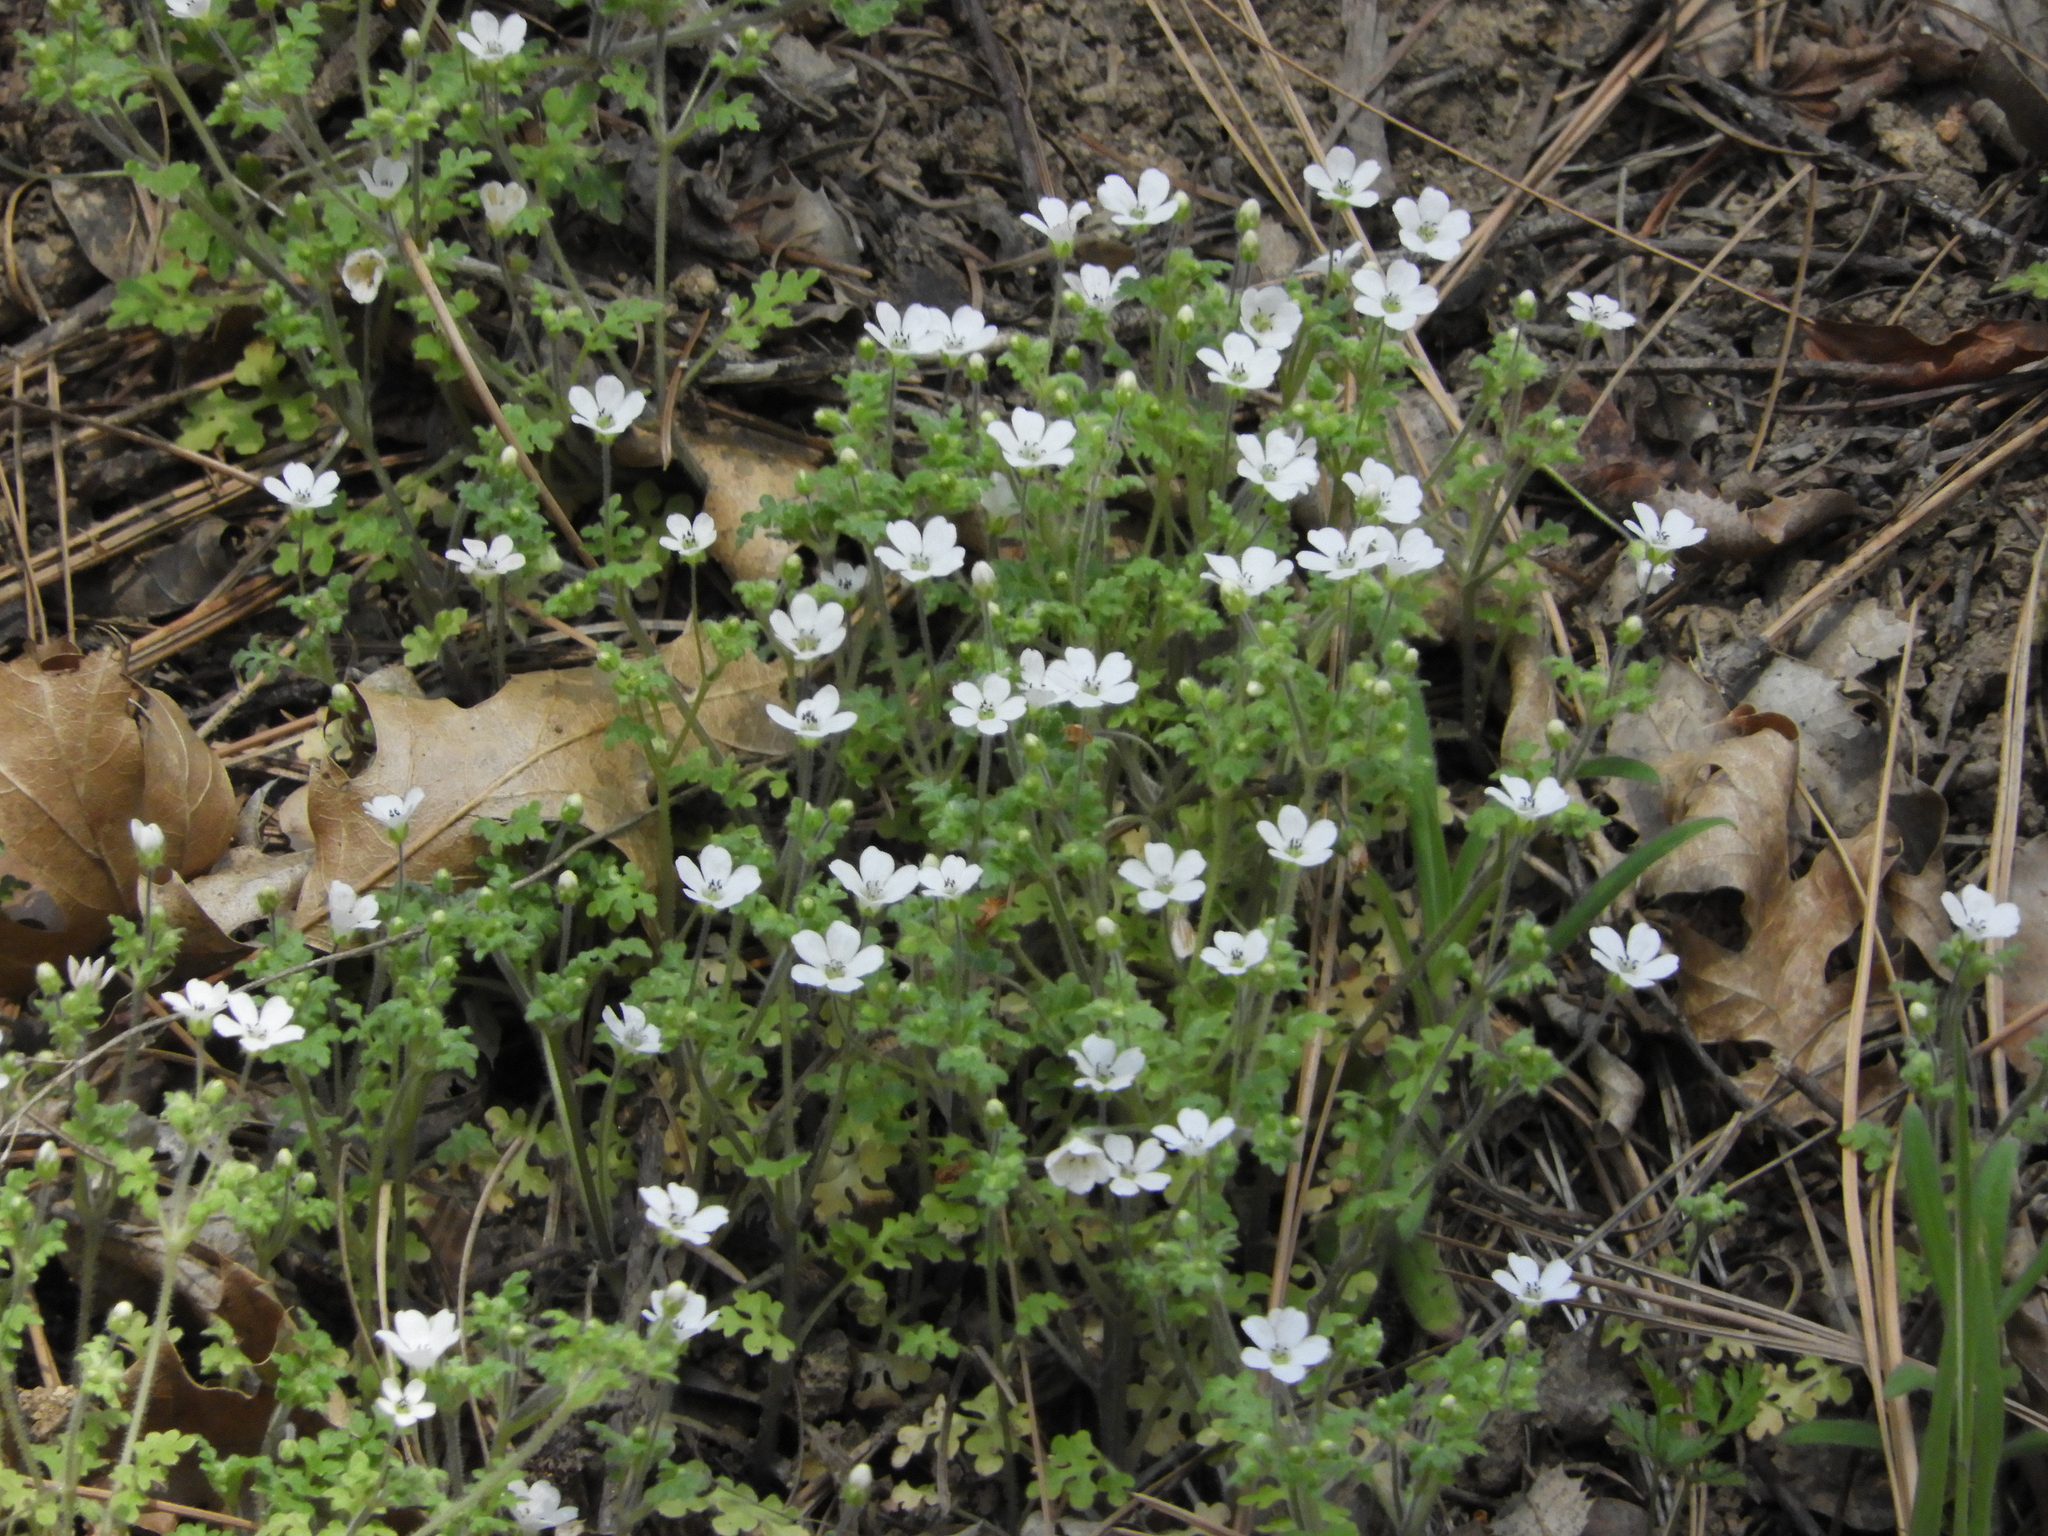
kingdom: Plantae
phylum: Tracheophyta
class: Magnoliopsida
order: Boraginales
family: Hydrophyllaceae
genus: Nemophila
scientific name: Nemophila heterophylla
